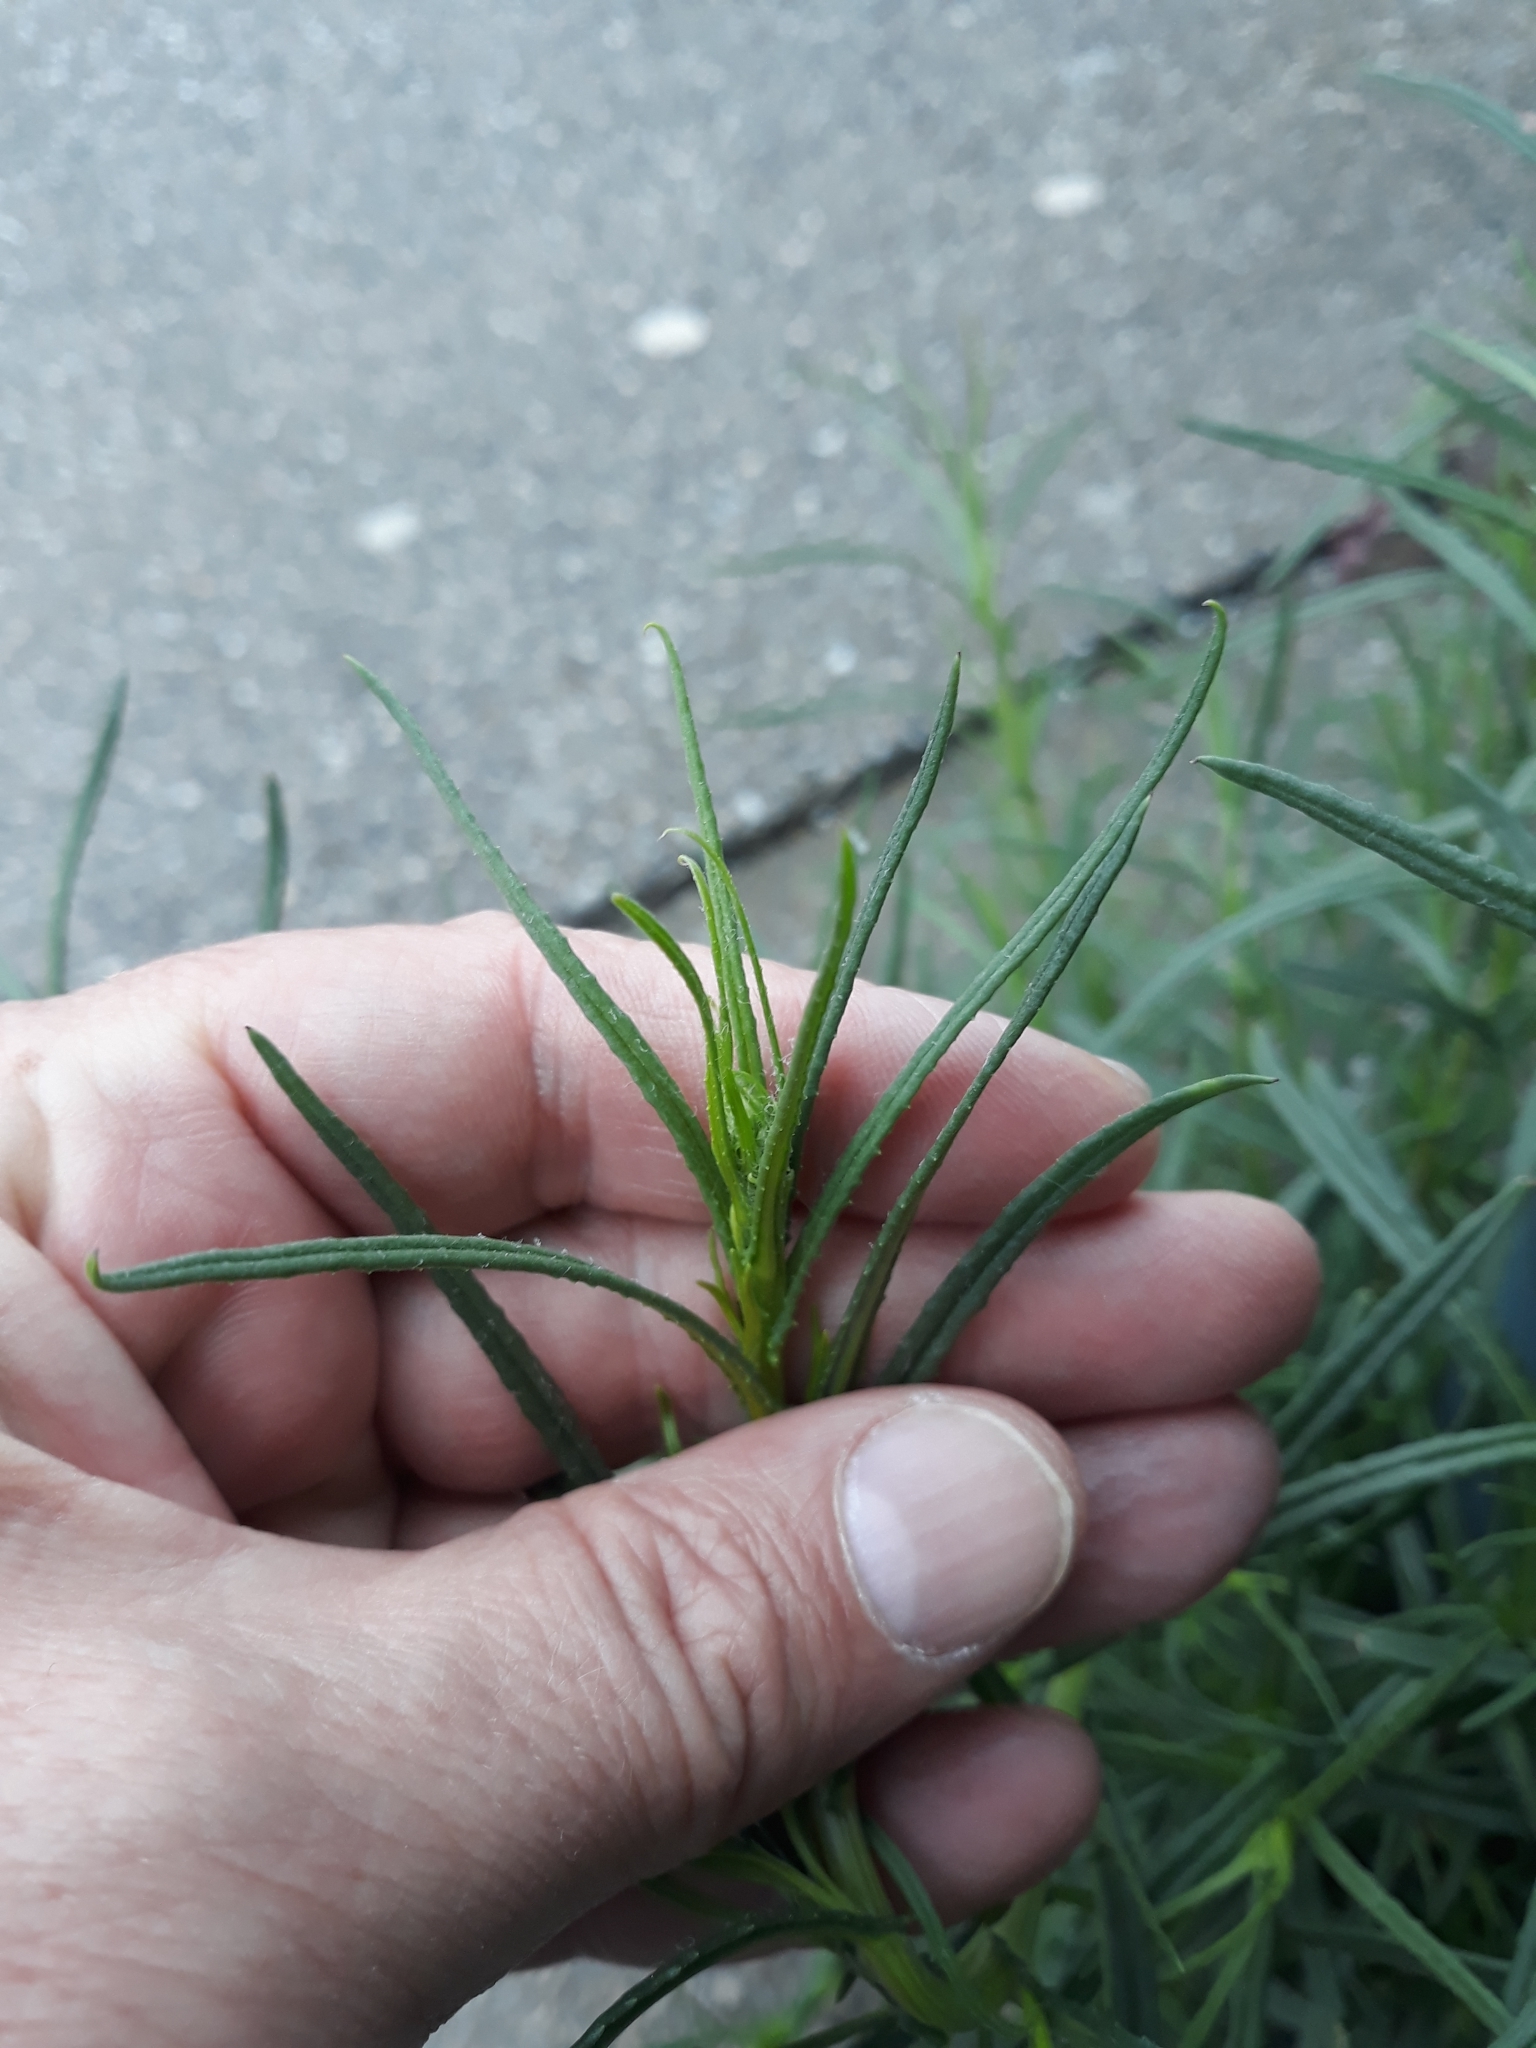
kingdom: Plantae
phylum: Tracheophyta
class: Magnoliopsida
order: Asterales
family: Asteraceae
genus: Senecio
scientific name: Senecio inaequidens
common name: Narrow-leaved ragwort
